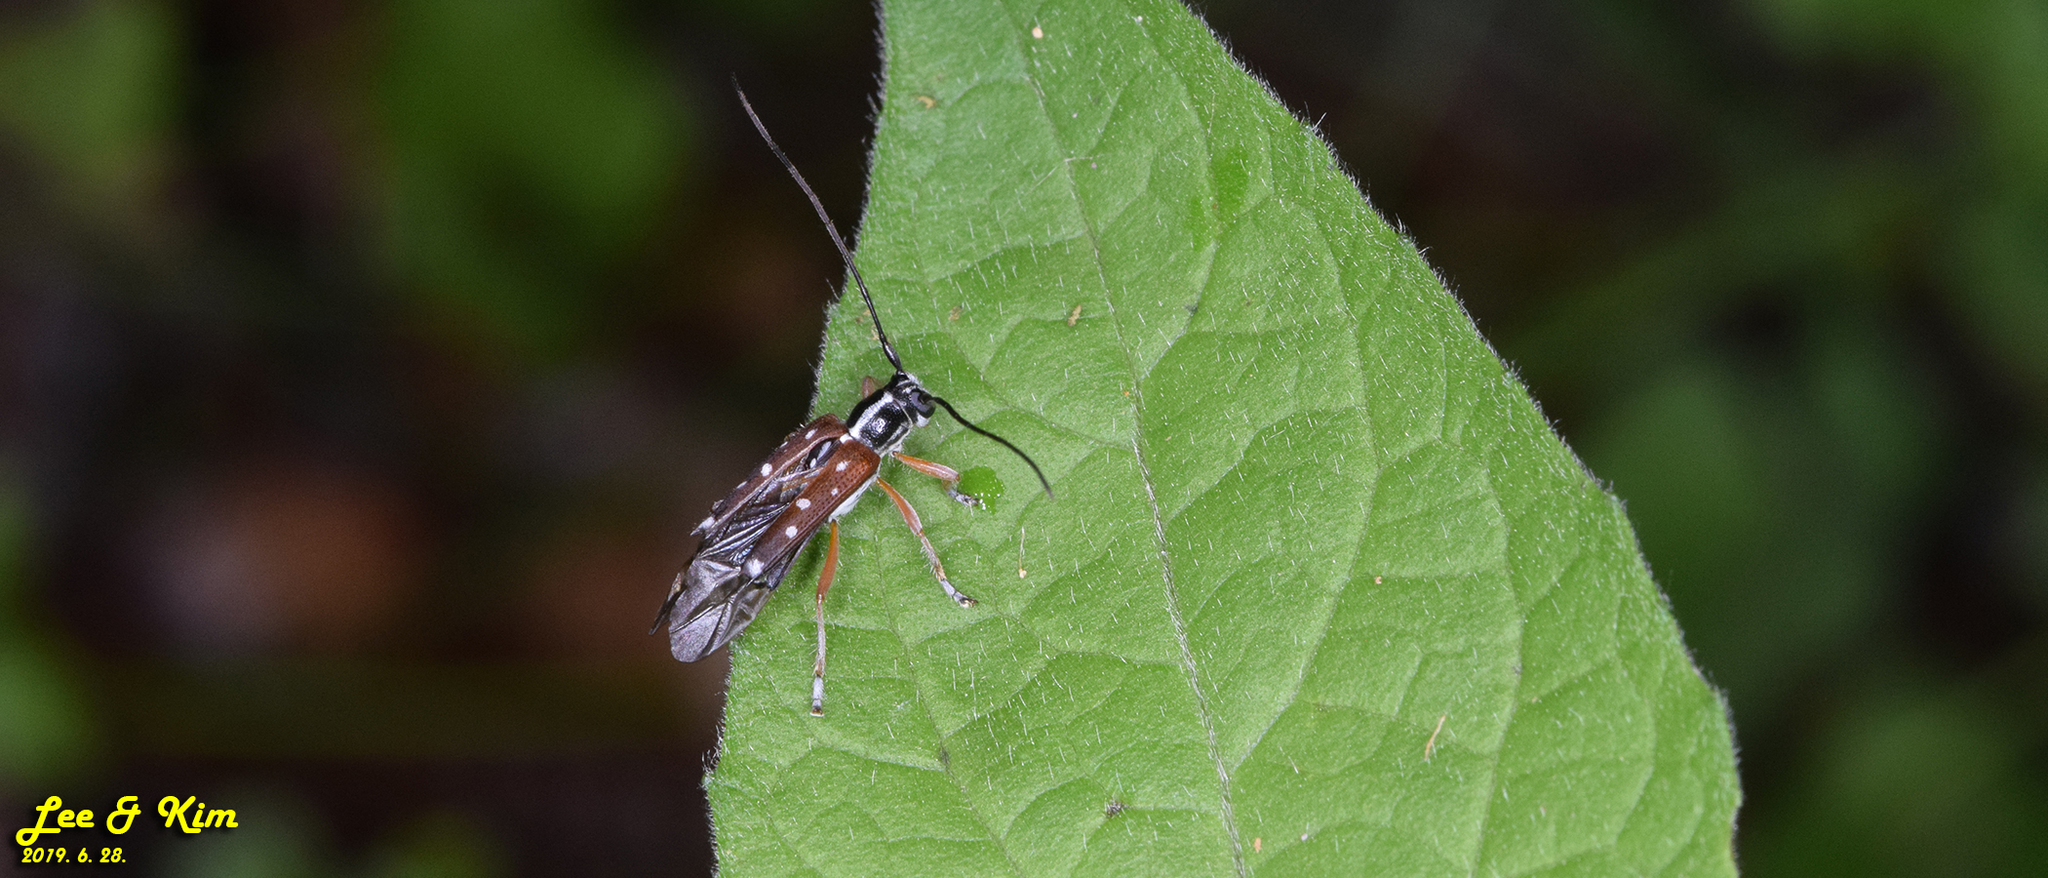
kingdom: Animalia
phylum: Arthropoda
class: Insecta
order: Coleoptera
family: Cerambycidae
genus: Glenea
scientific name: Glenea relicta
